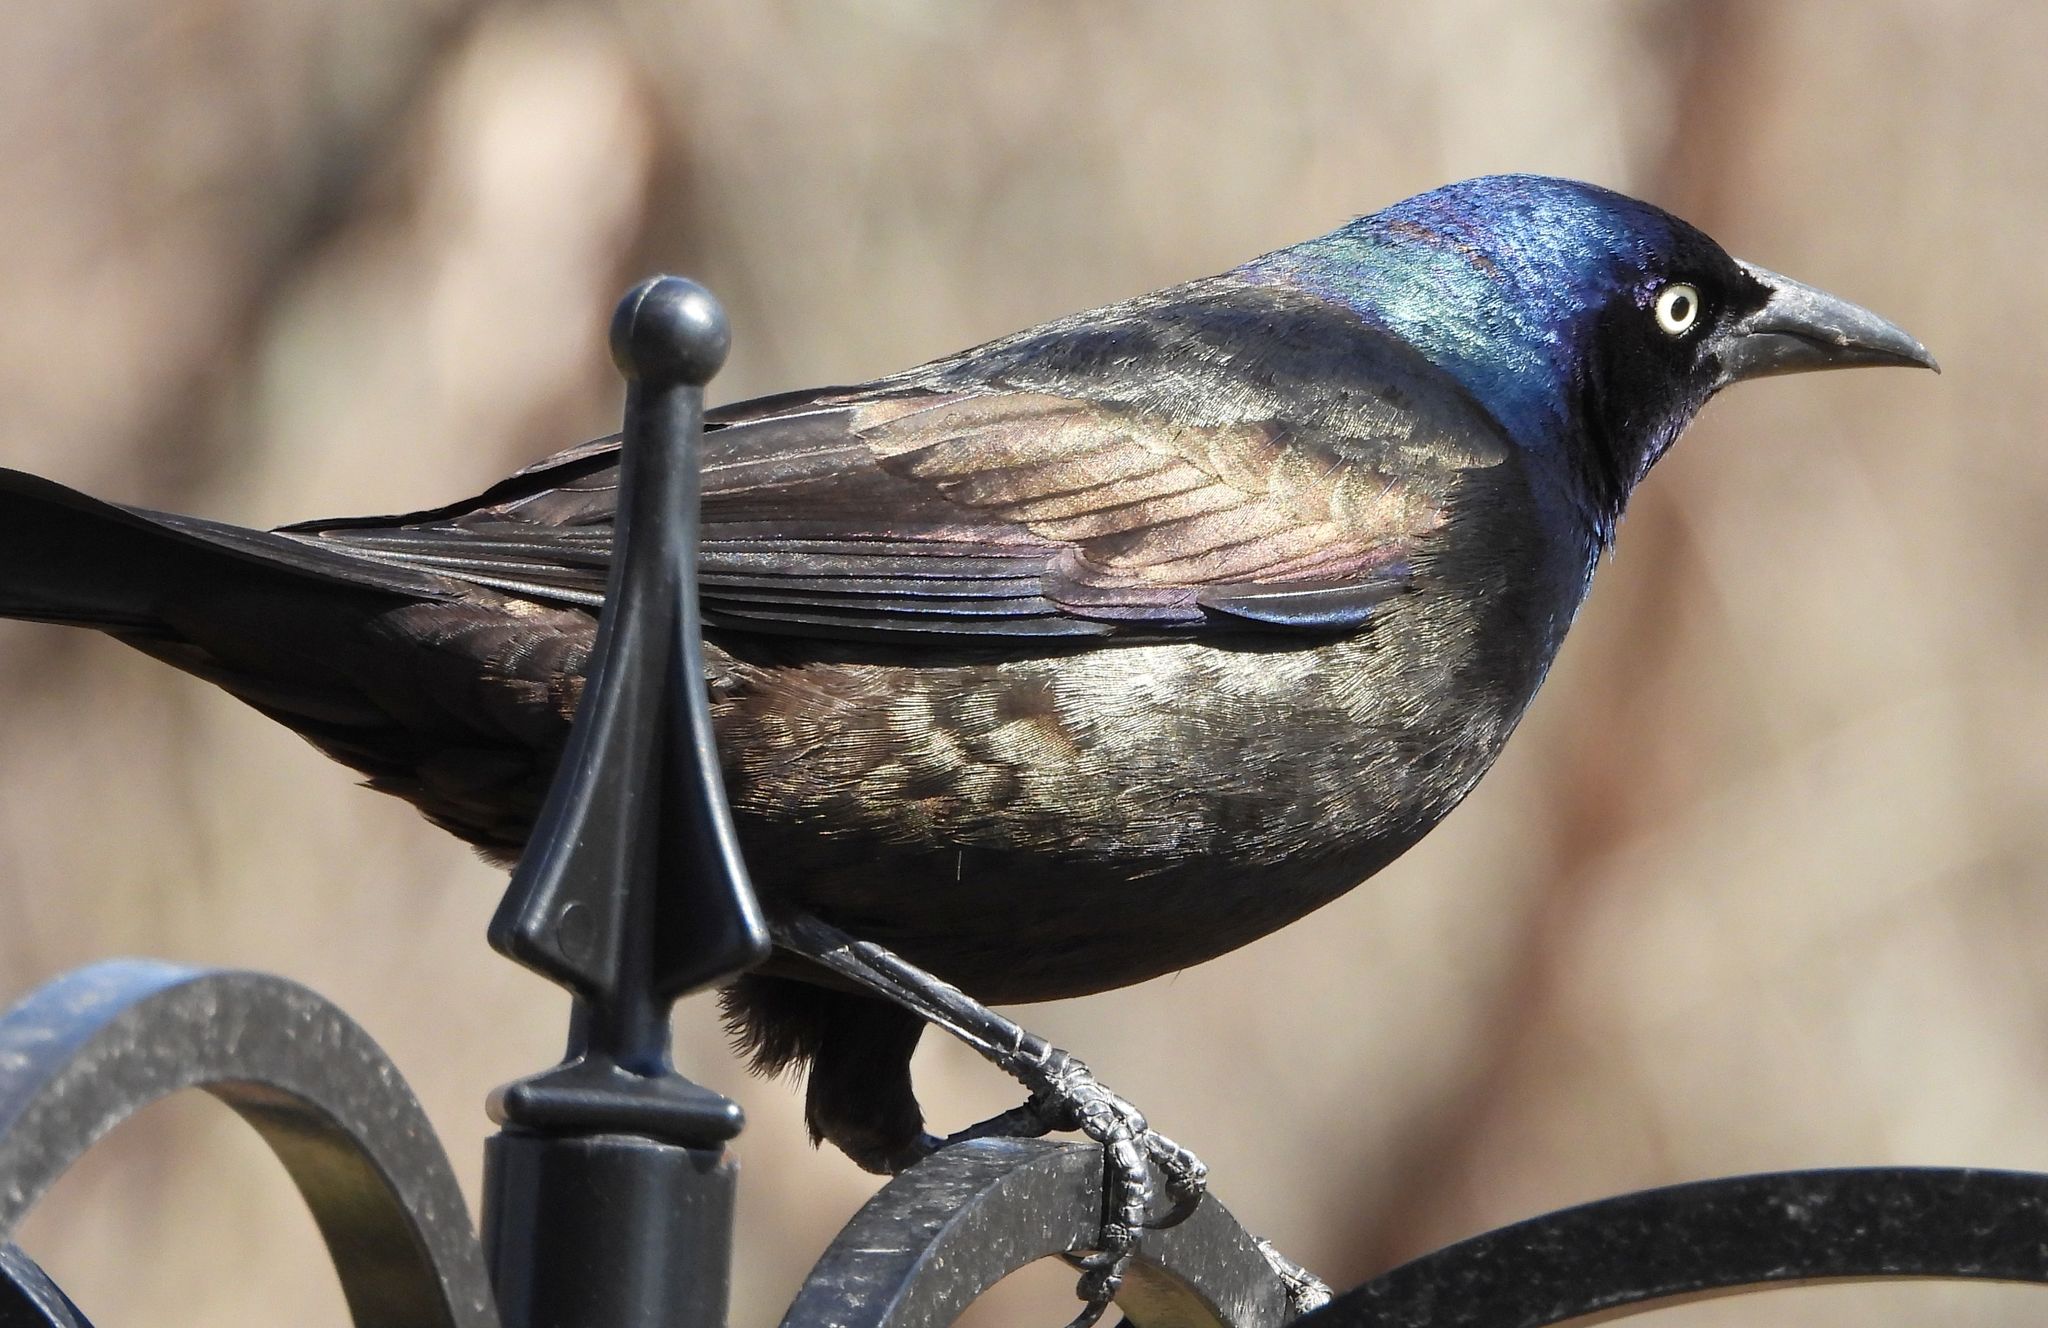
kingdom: Animalia
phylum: Chordata
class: Aves
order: Passeriformes
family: Icteridae
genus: Quiscalus
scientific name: Quiscalus quiscula
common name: Common grackle
